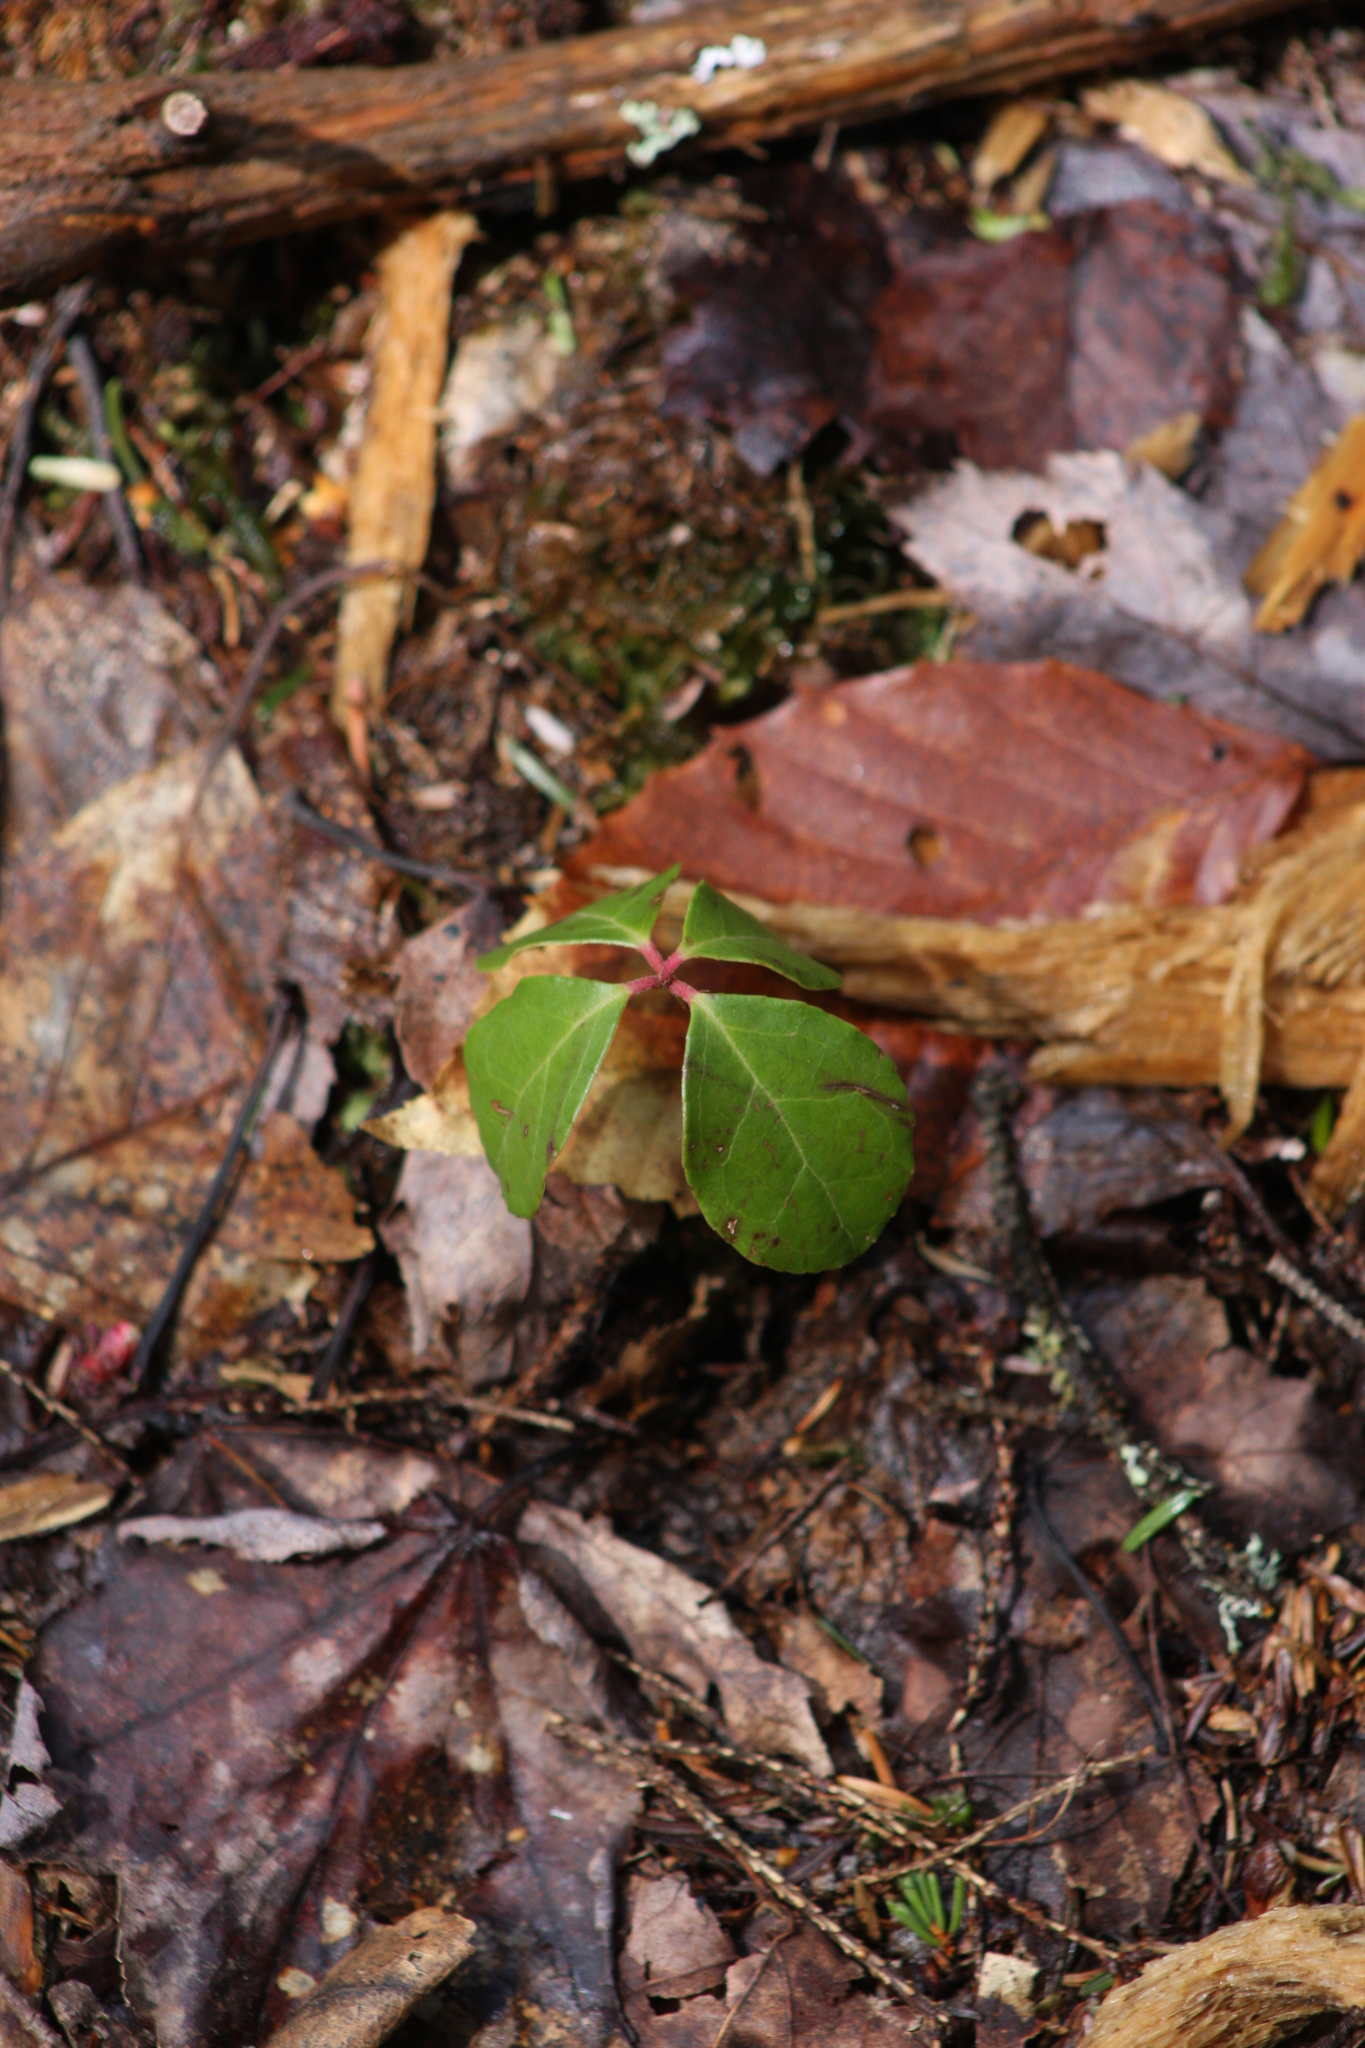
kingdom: Plantae
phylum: Tracheophyta
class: Magnoliopsida
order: Ericales
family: Ericaceae
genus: Gaultheria
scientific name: Gaultheria procumbens
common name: Checkerberry
